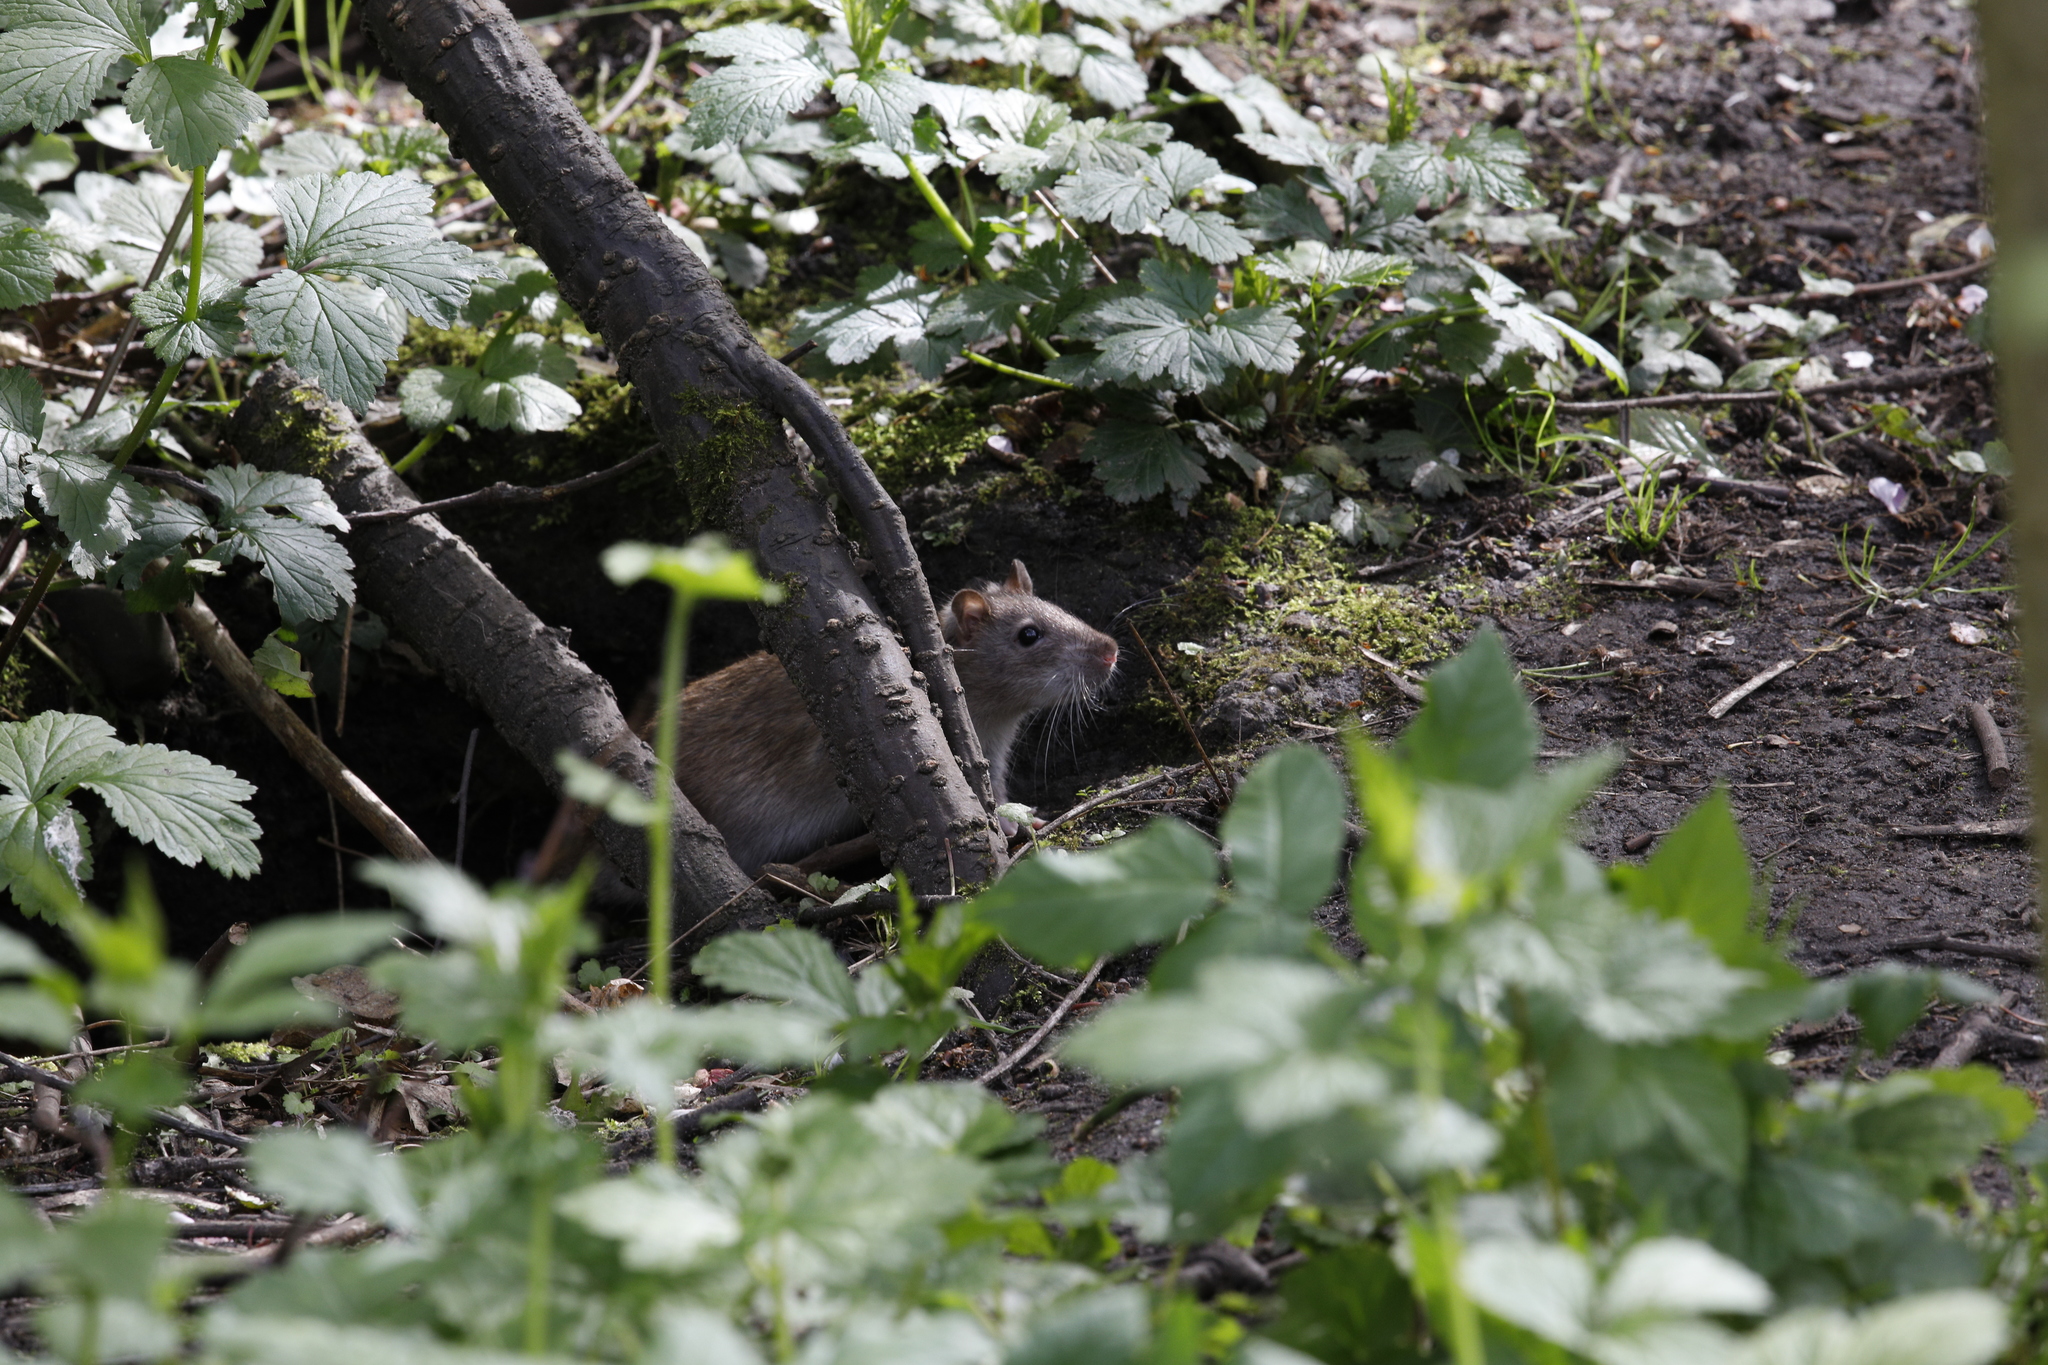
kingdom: Animalia
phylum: Chordata
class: Mammalia
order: Rodentia
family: Muridae
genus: Rattus
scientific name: Rattus norvegicus
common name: Brown rat
